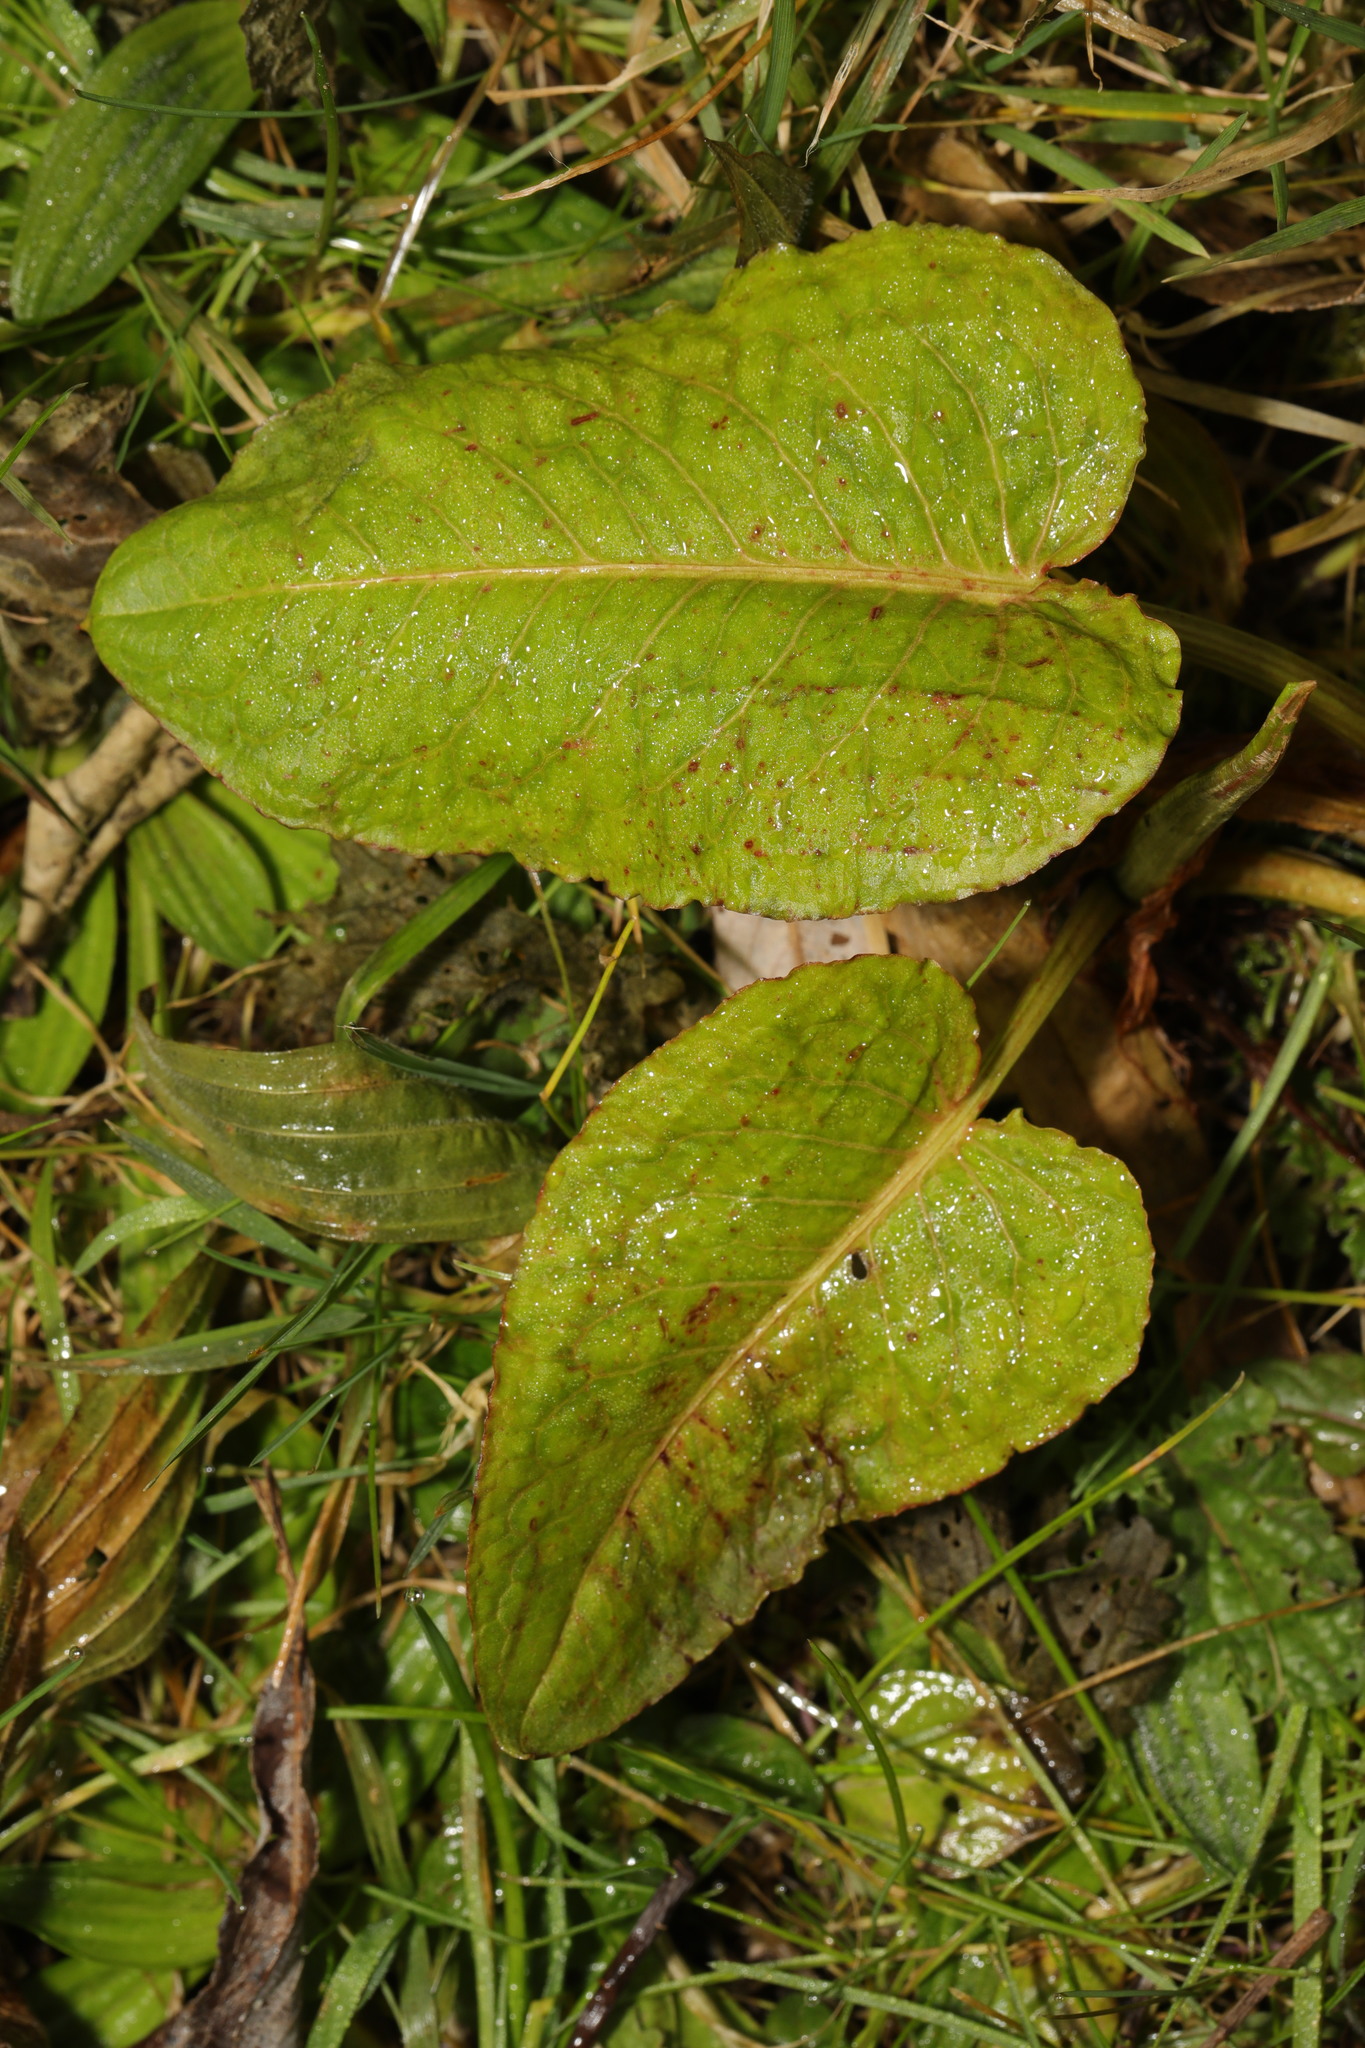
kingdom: Plantae
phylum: Tracheophyta
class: Magnoliopsida
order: Caryophyllales
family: Polygonaceae
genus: Rumex
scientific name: Rumex obtusifolius
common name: Bitter dock
